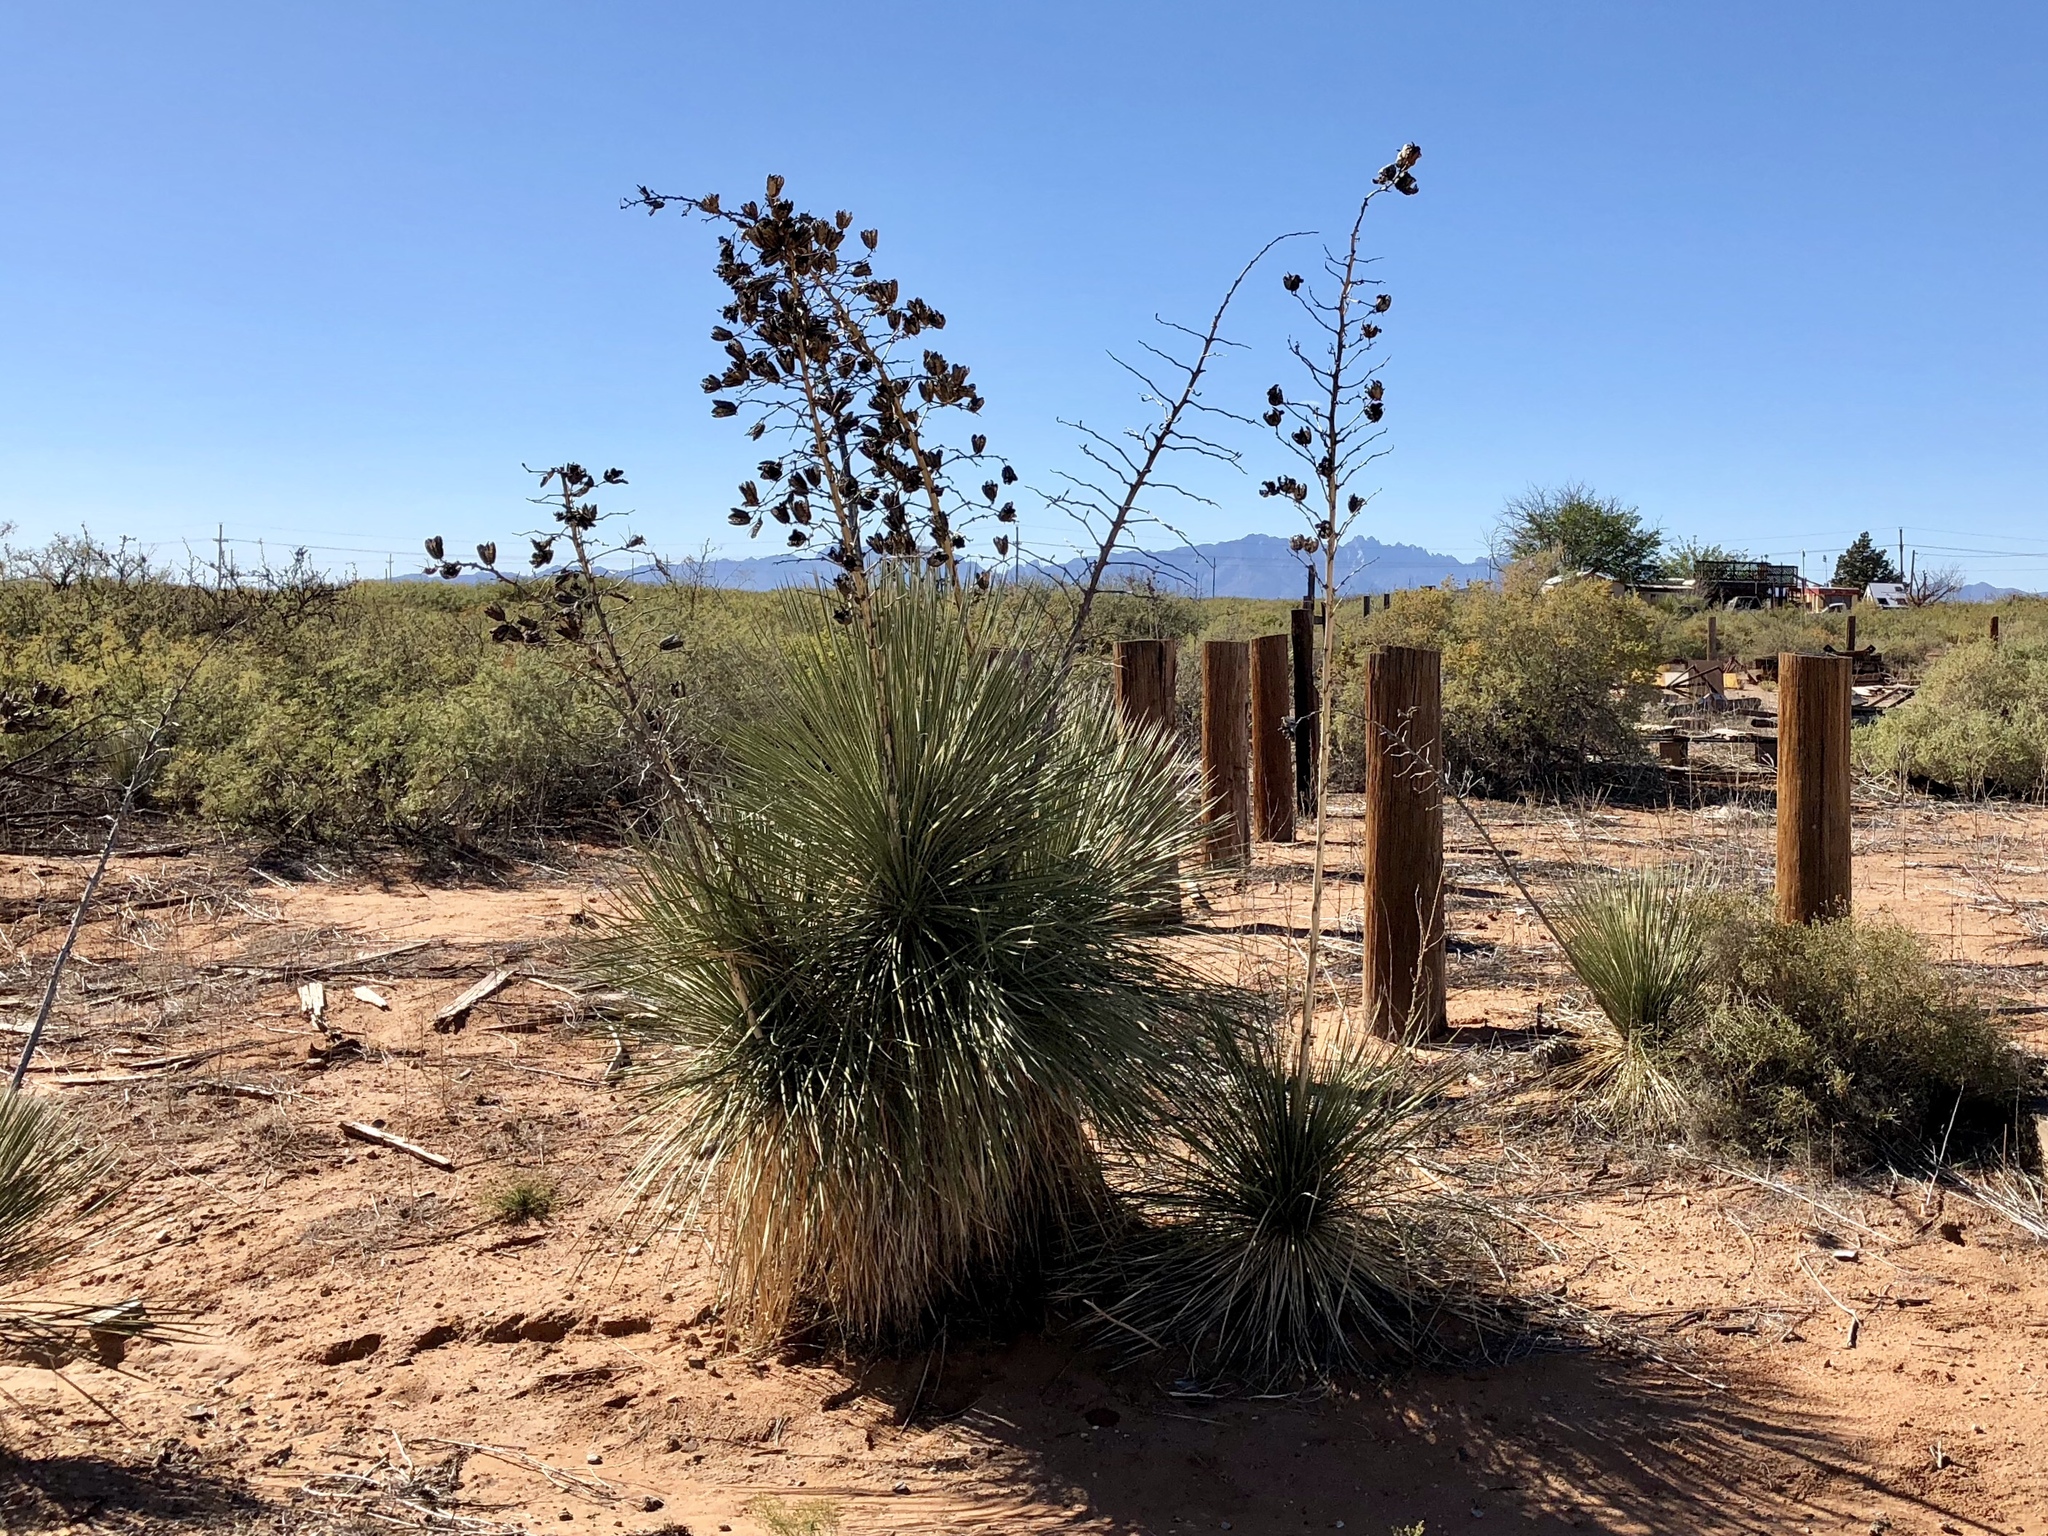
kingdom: Plantae
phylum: Tracheophyta
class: Liliopsida
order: Asparagales
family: Asparagaceae
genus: Yucca
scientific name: Yucca elata
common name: Palmella
